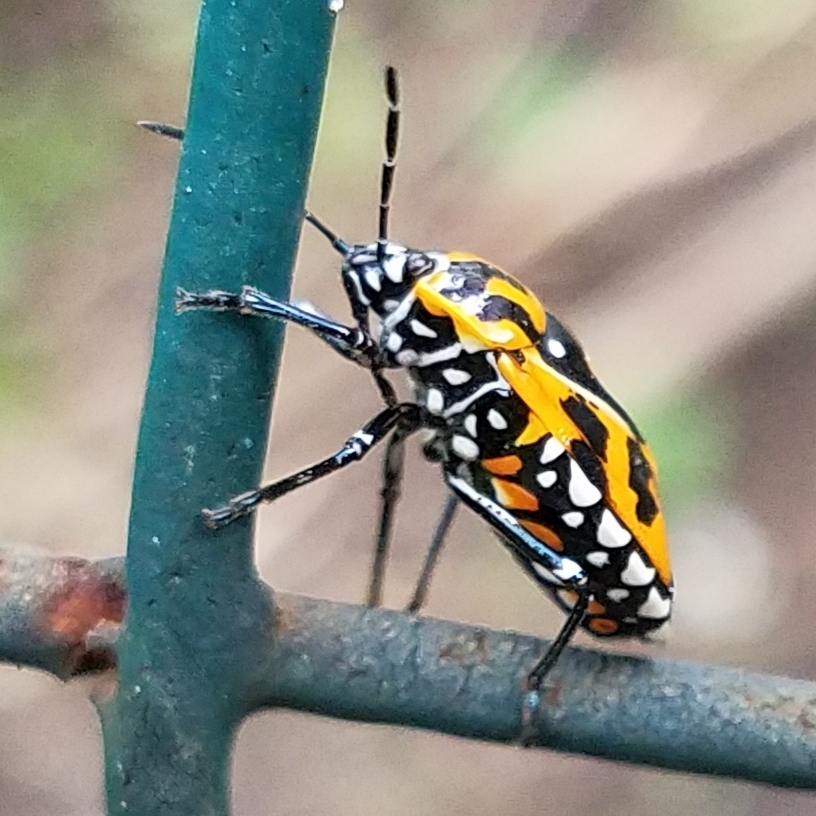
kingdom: Animalia
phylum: Arthropoda
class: Insecta
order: Hemiptera
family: Pentatomidae
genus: Murgantia
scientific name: Murgantia histrionica
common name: Harlequin bug
